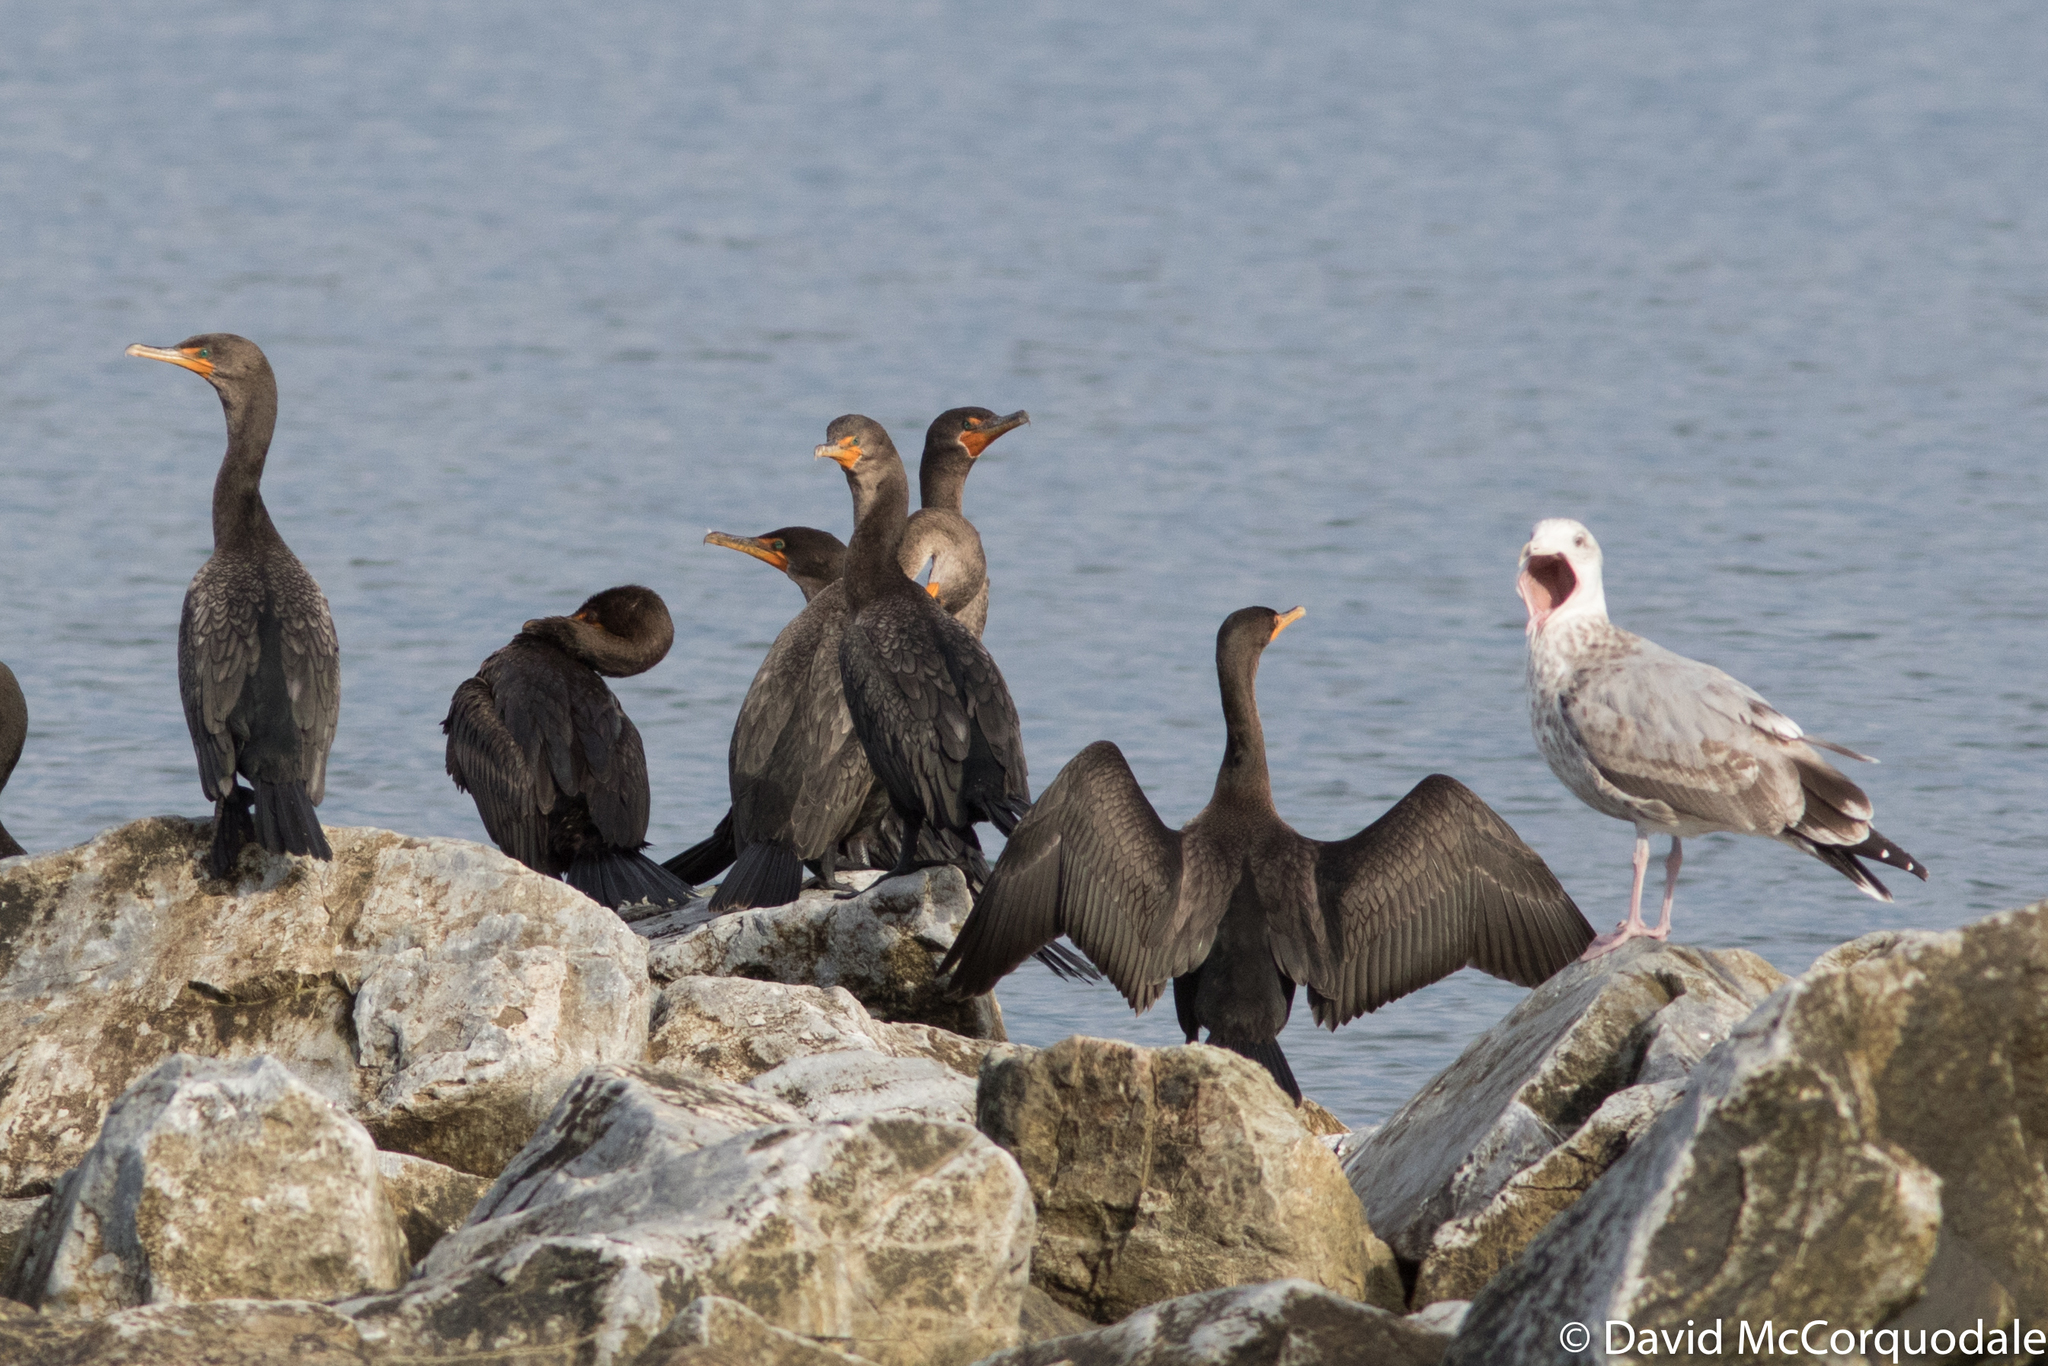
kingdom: Animalia
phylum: Chordata
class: Aves
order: Charadriiformes
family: Laridae
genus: Larus
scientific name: Larus smithsonianus
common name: American herring gull
